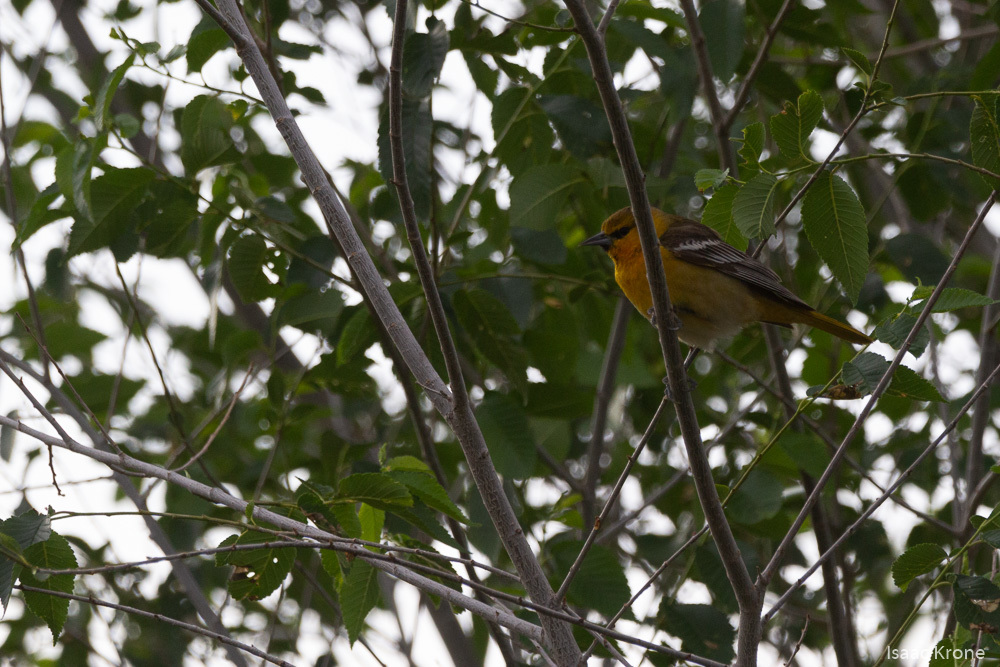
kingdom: Animalia
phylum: Chordata
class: Aves
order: Passeriformes
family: Icteridae
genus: Icterus
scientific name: Icterus bullockii
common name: Bullock's oriole
